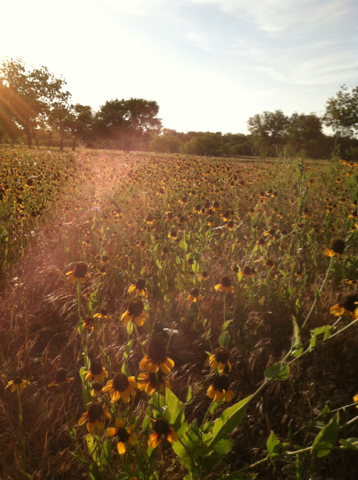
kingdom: Plantae
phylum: Tracheophyta
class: Magnoliopsida
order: Asterales
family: Asteraceae
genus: Rudbeckia
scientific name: Rudbeckia amplexicaulis
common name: Clasping-leaf coneflower
